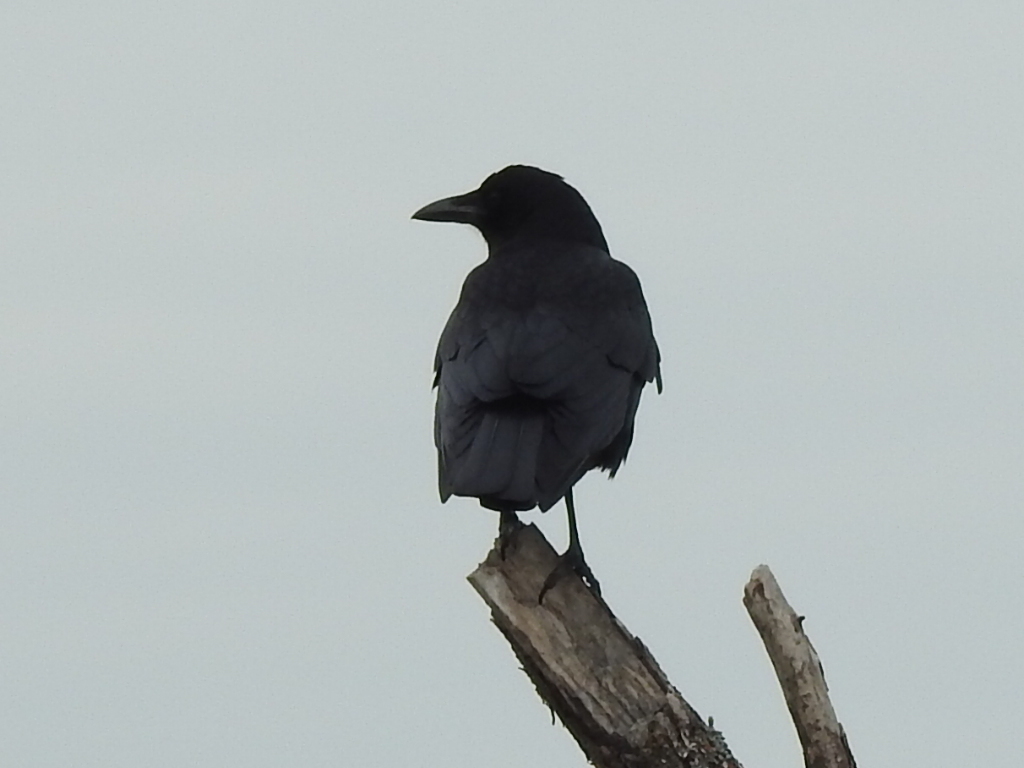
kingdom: Animalia
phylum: Chordata
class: Aves
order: Passeriformes
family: Corvidae
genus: Corvus
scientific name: Corvus brachyrhynchos
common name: American crow
